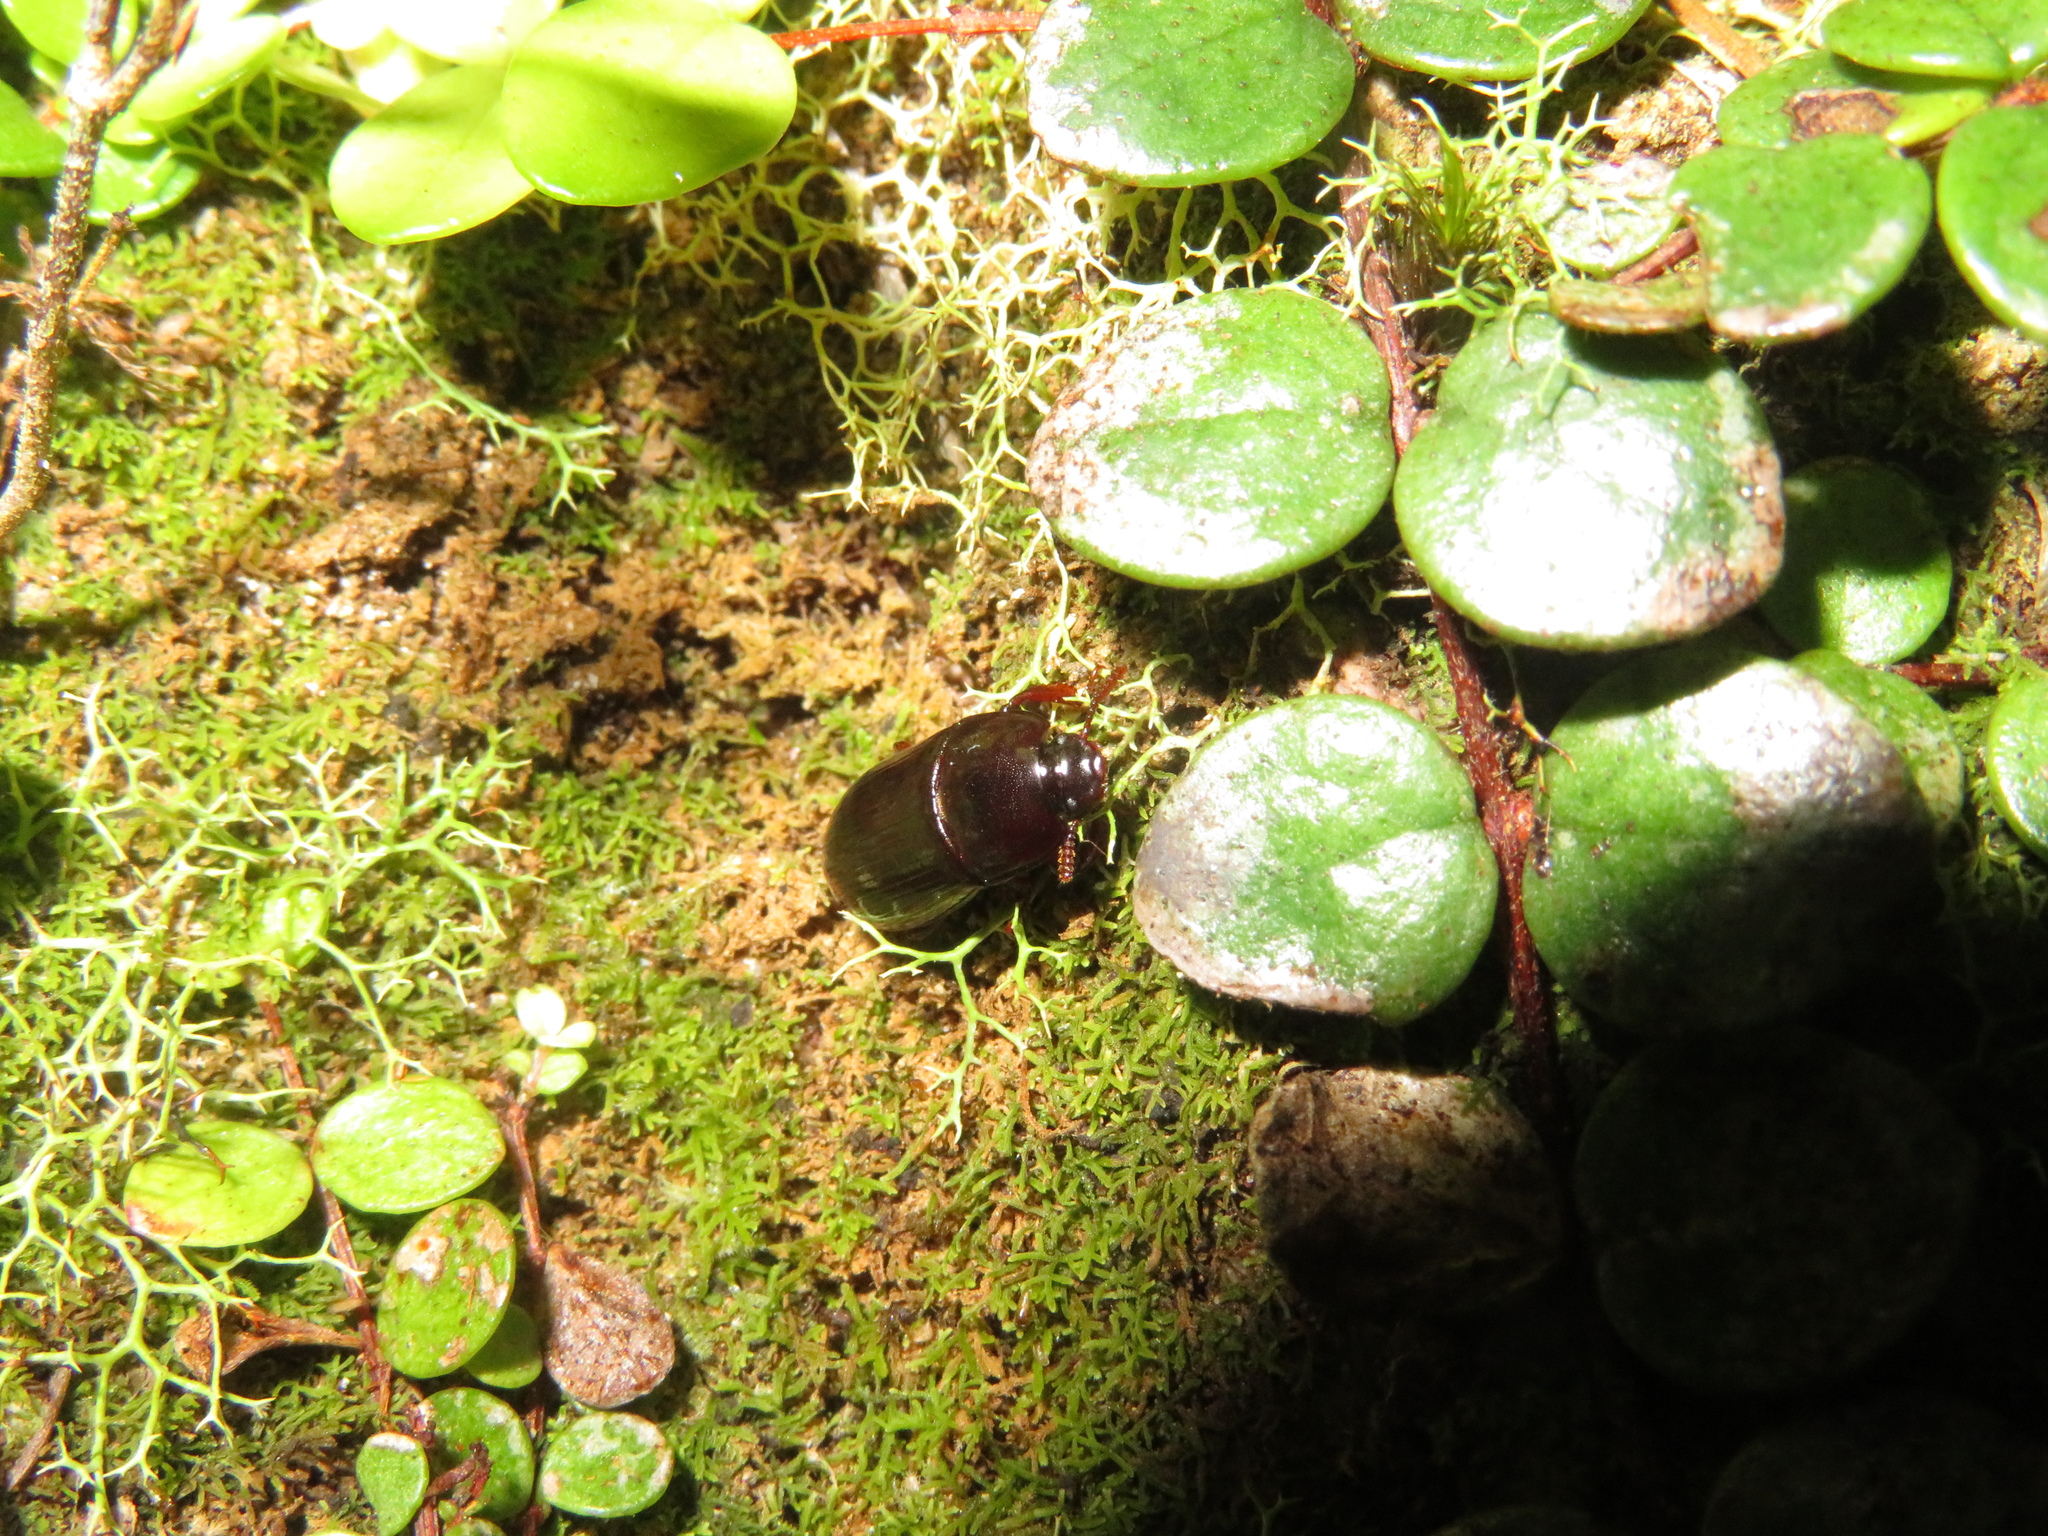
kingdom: Animalia
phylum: Arthropoda
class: Insecta
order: Coleoptera
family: Tenebrionidae
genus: Uloma
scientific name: Uloma tenebrionoides
